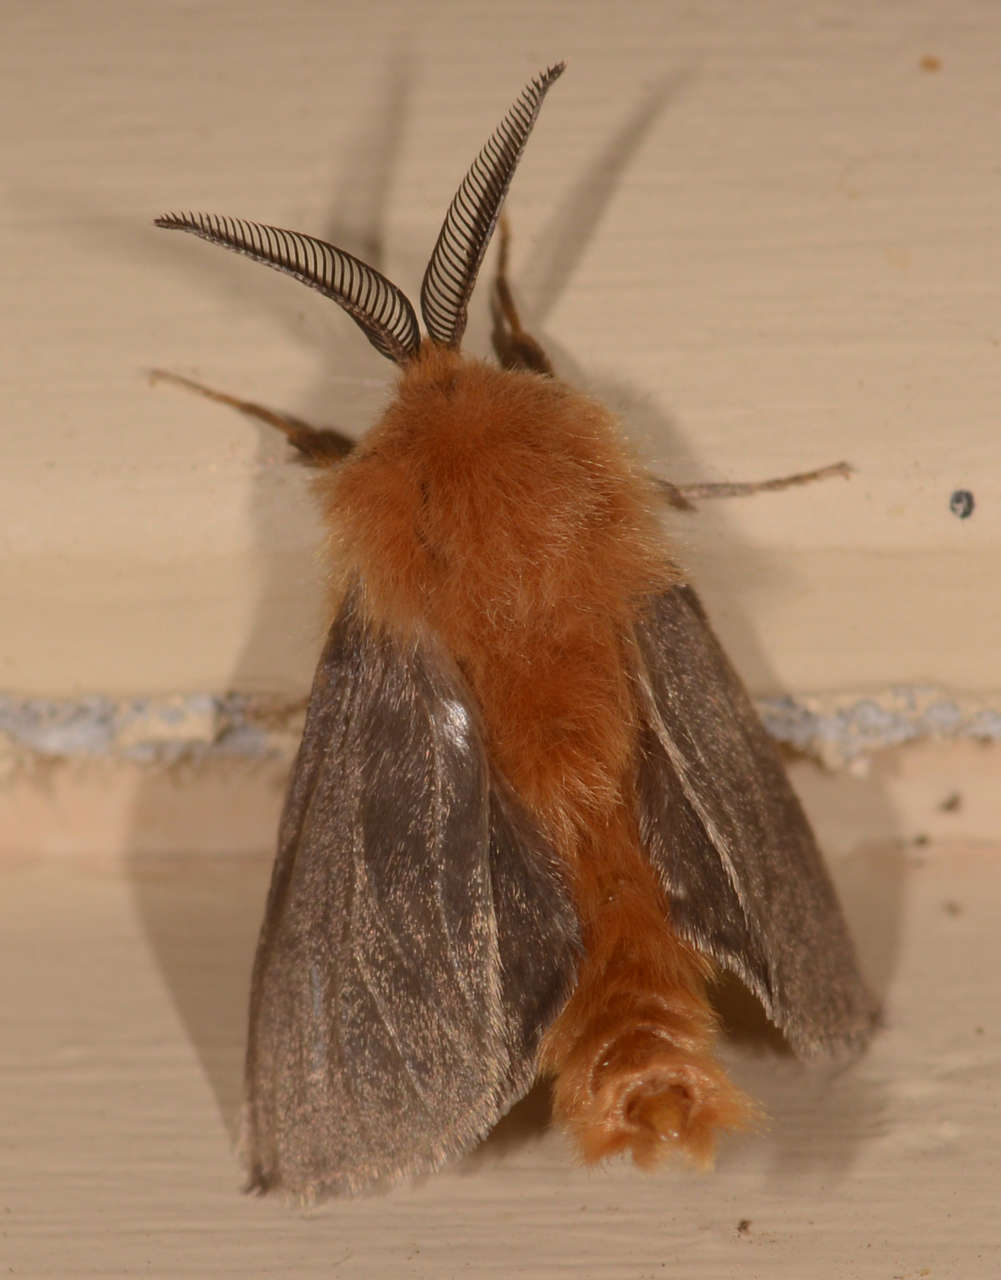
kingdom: Animalia
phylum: Arthropoda
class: Insecta
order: Lepidoptera
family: Psychidae
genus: Lomera
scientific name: Lomera
